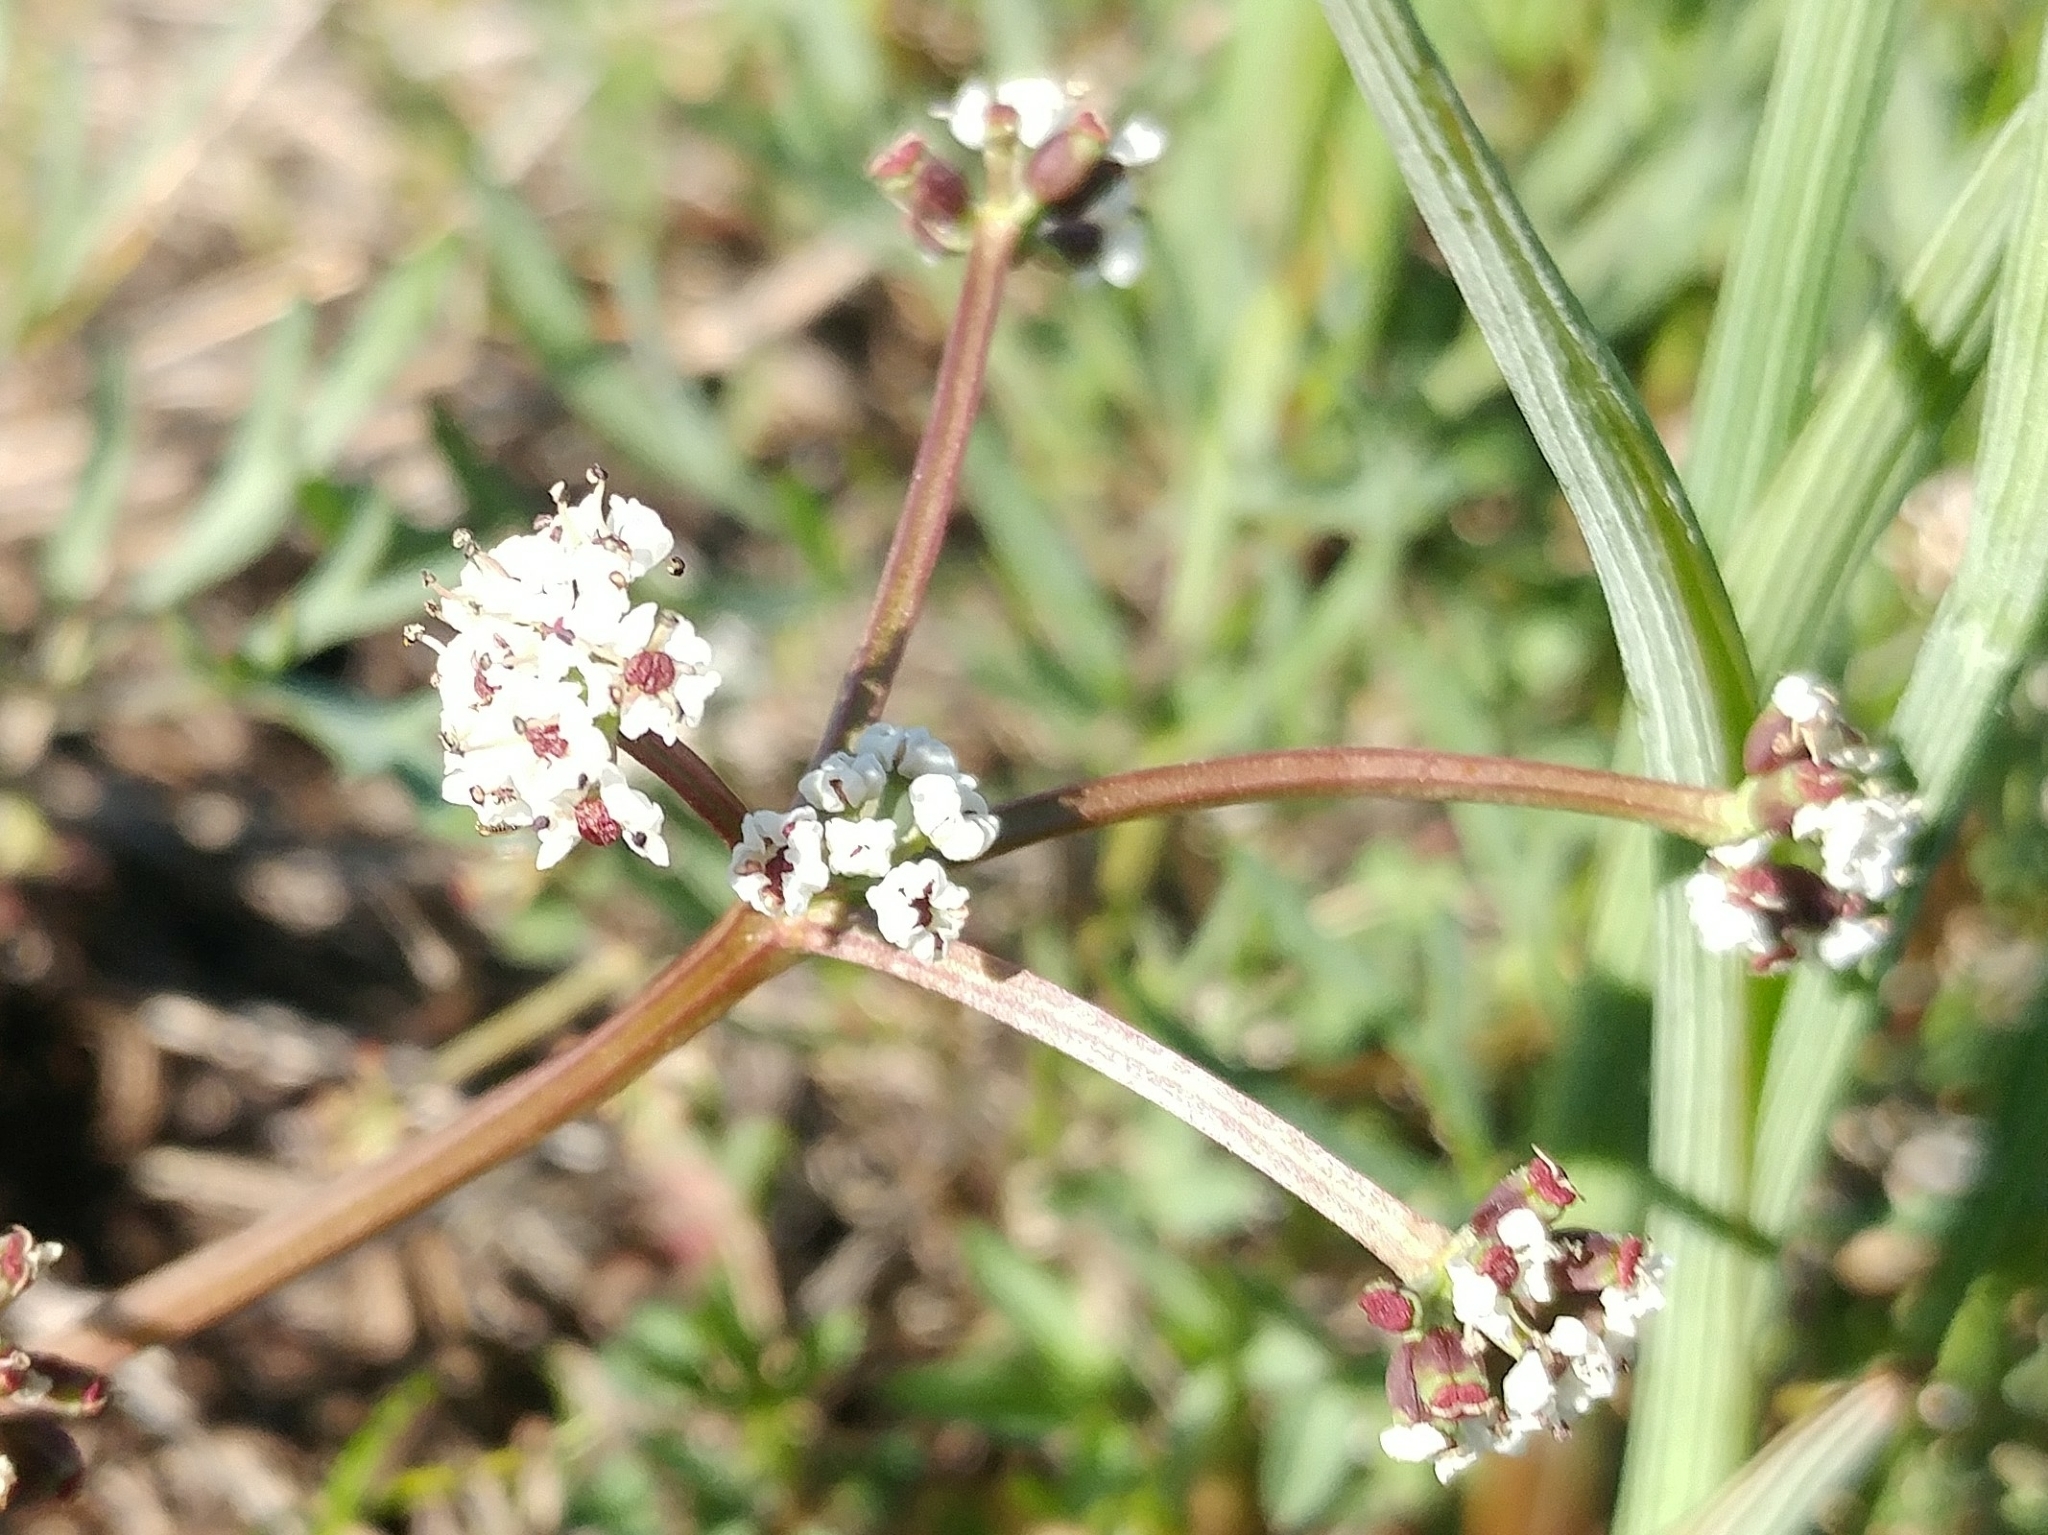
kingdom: Plantae
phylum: Tracheophyta
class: Magnoliopsida
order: Apiales
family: Apiaceae
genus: Lomatium
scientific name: Lomatium piperi
